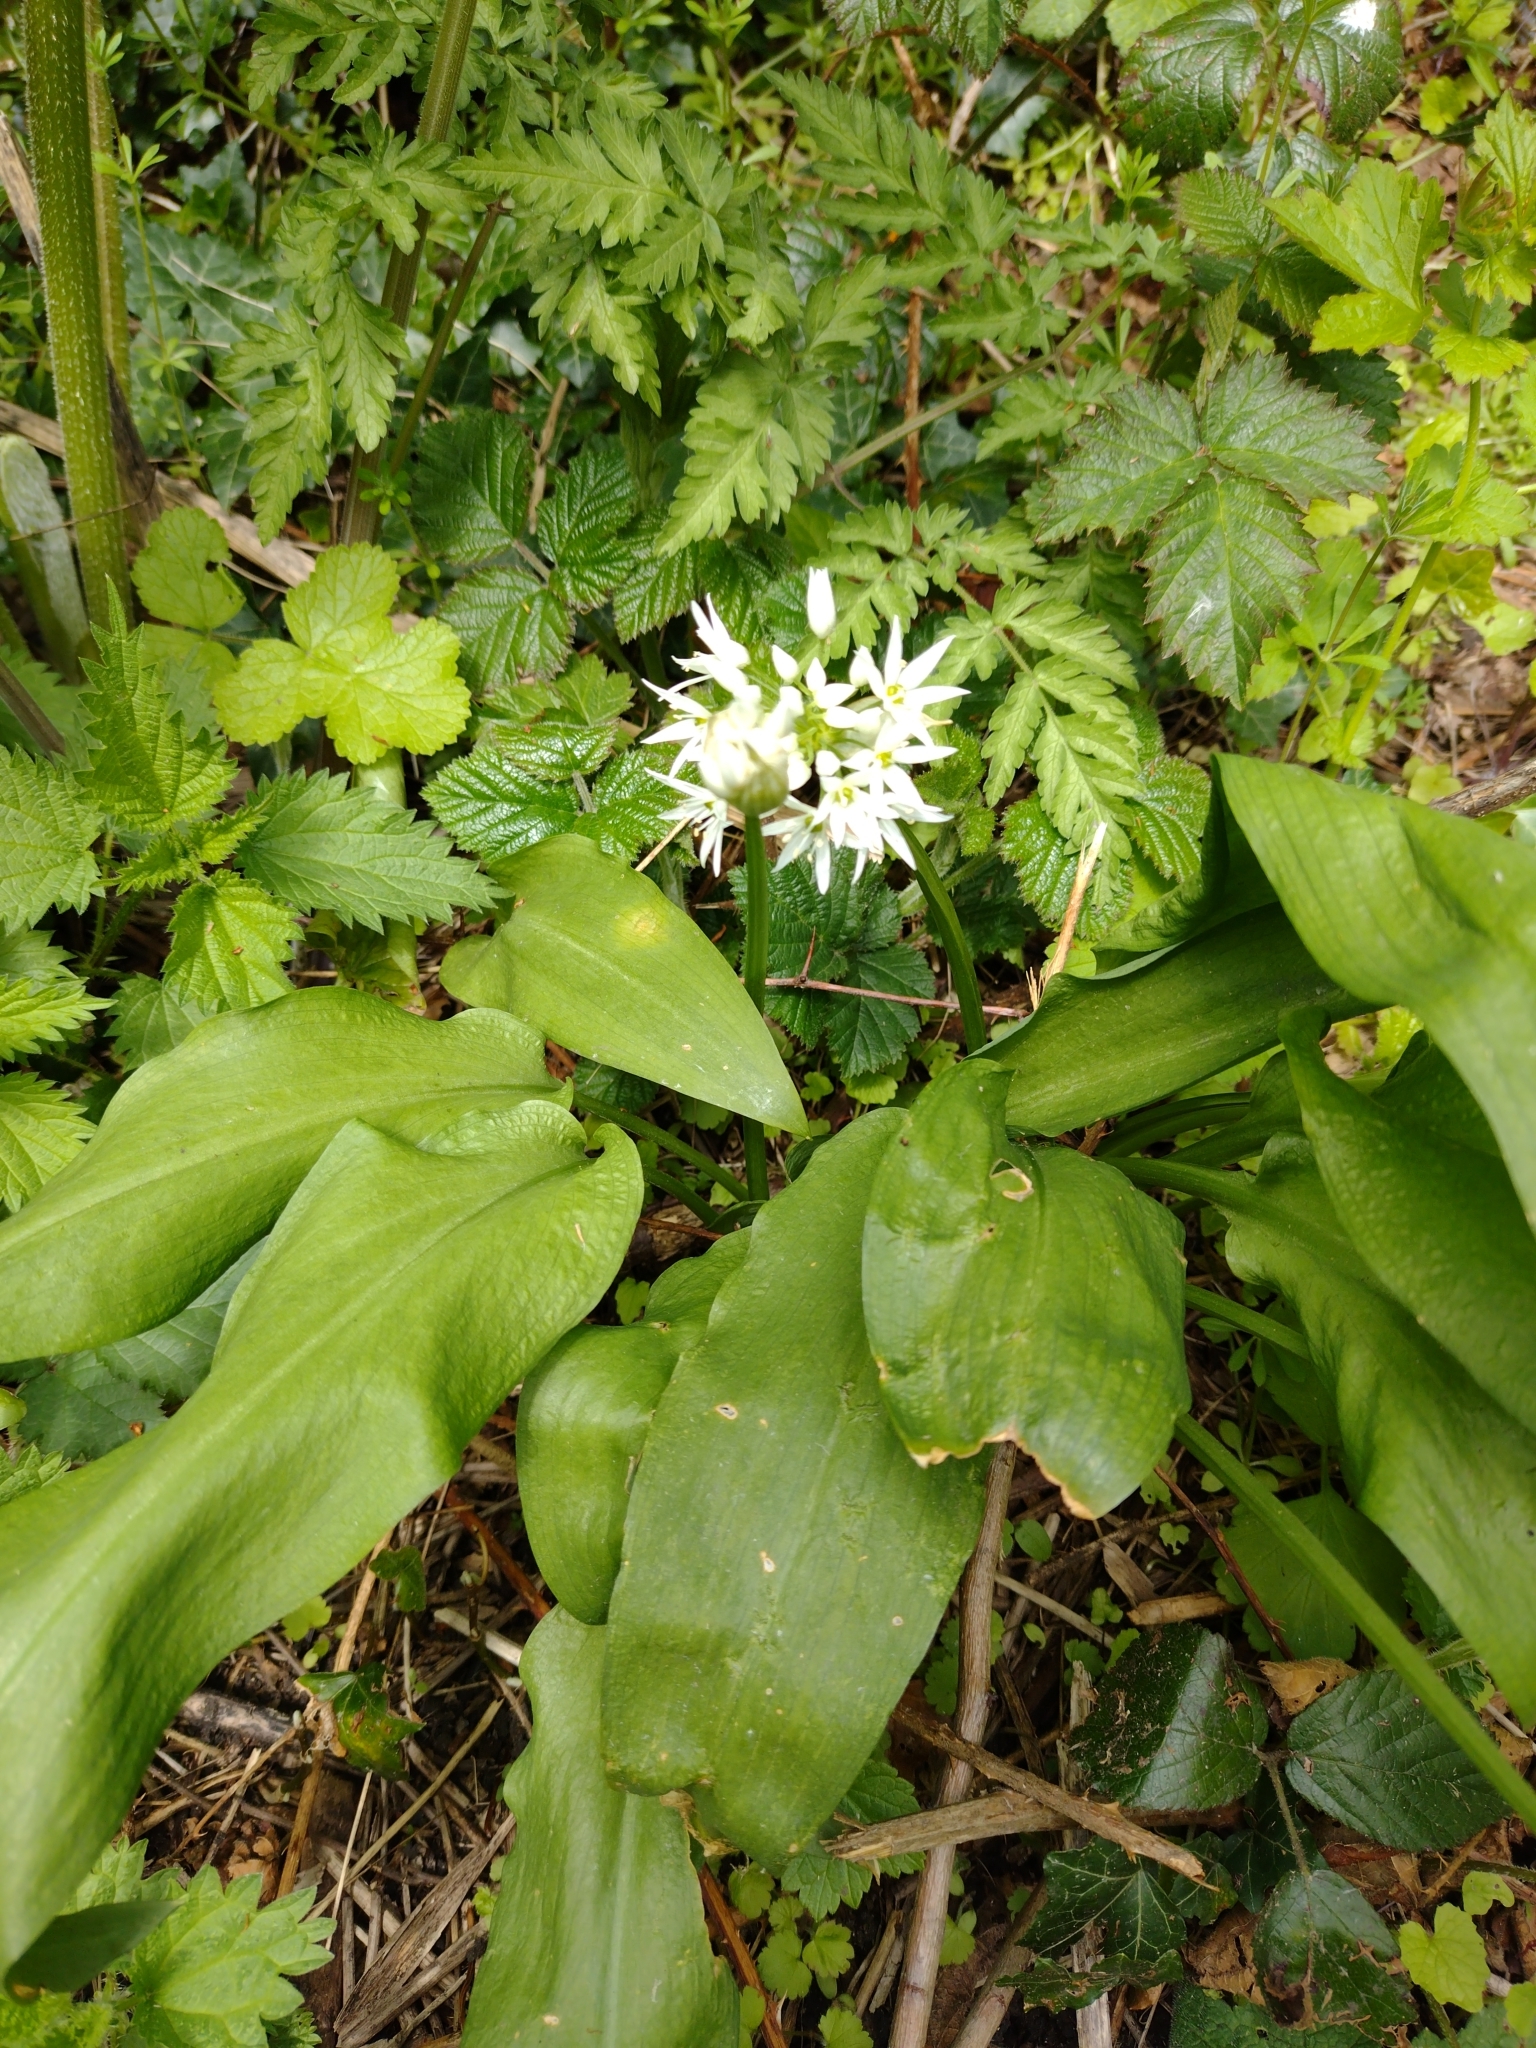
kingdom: Plantae
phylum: Tracheophyta
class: Liliopsida
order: Asparagales
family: Amaryllidaceae
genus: Allium
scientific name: Allium ursinum
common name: Ramsons
